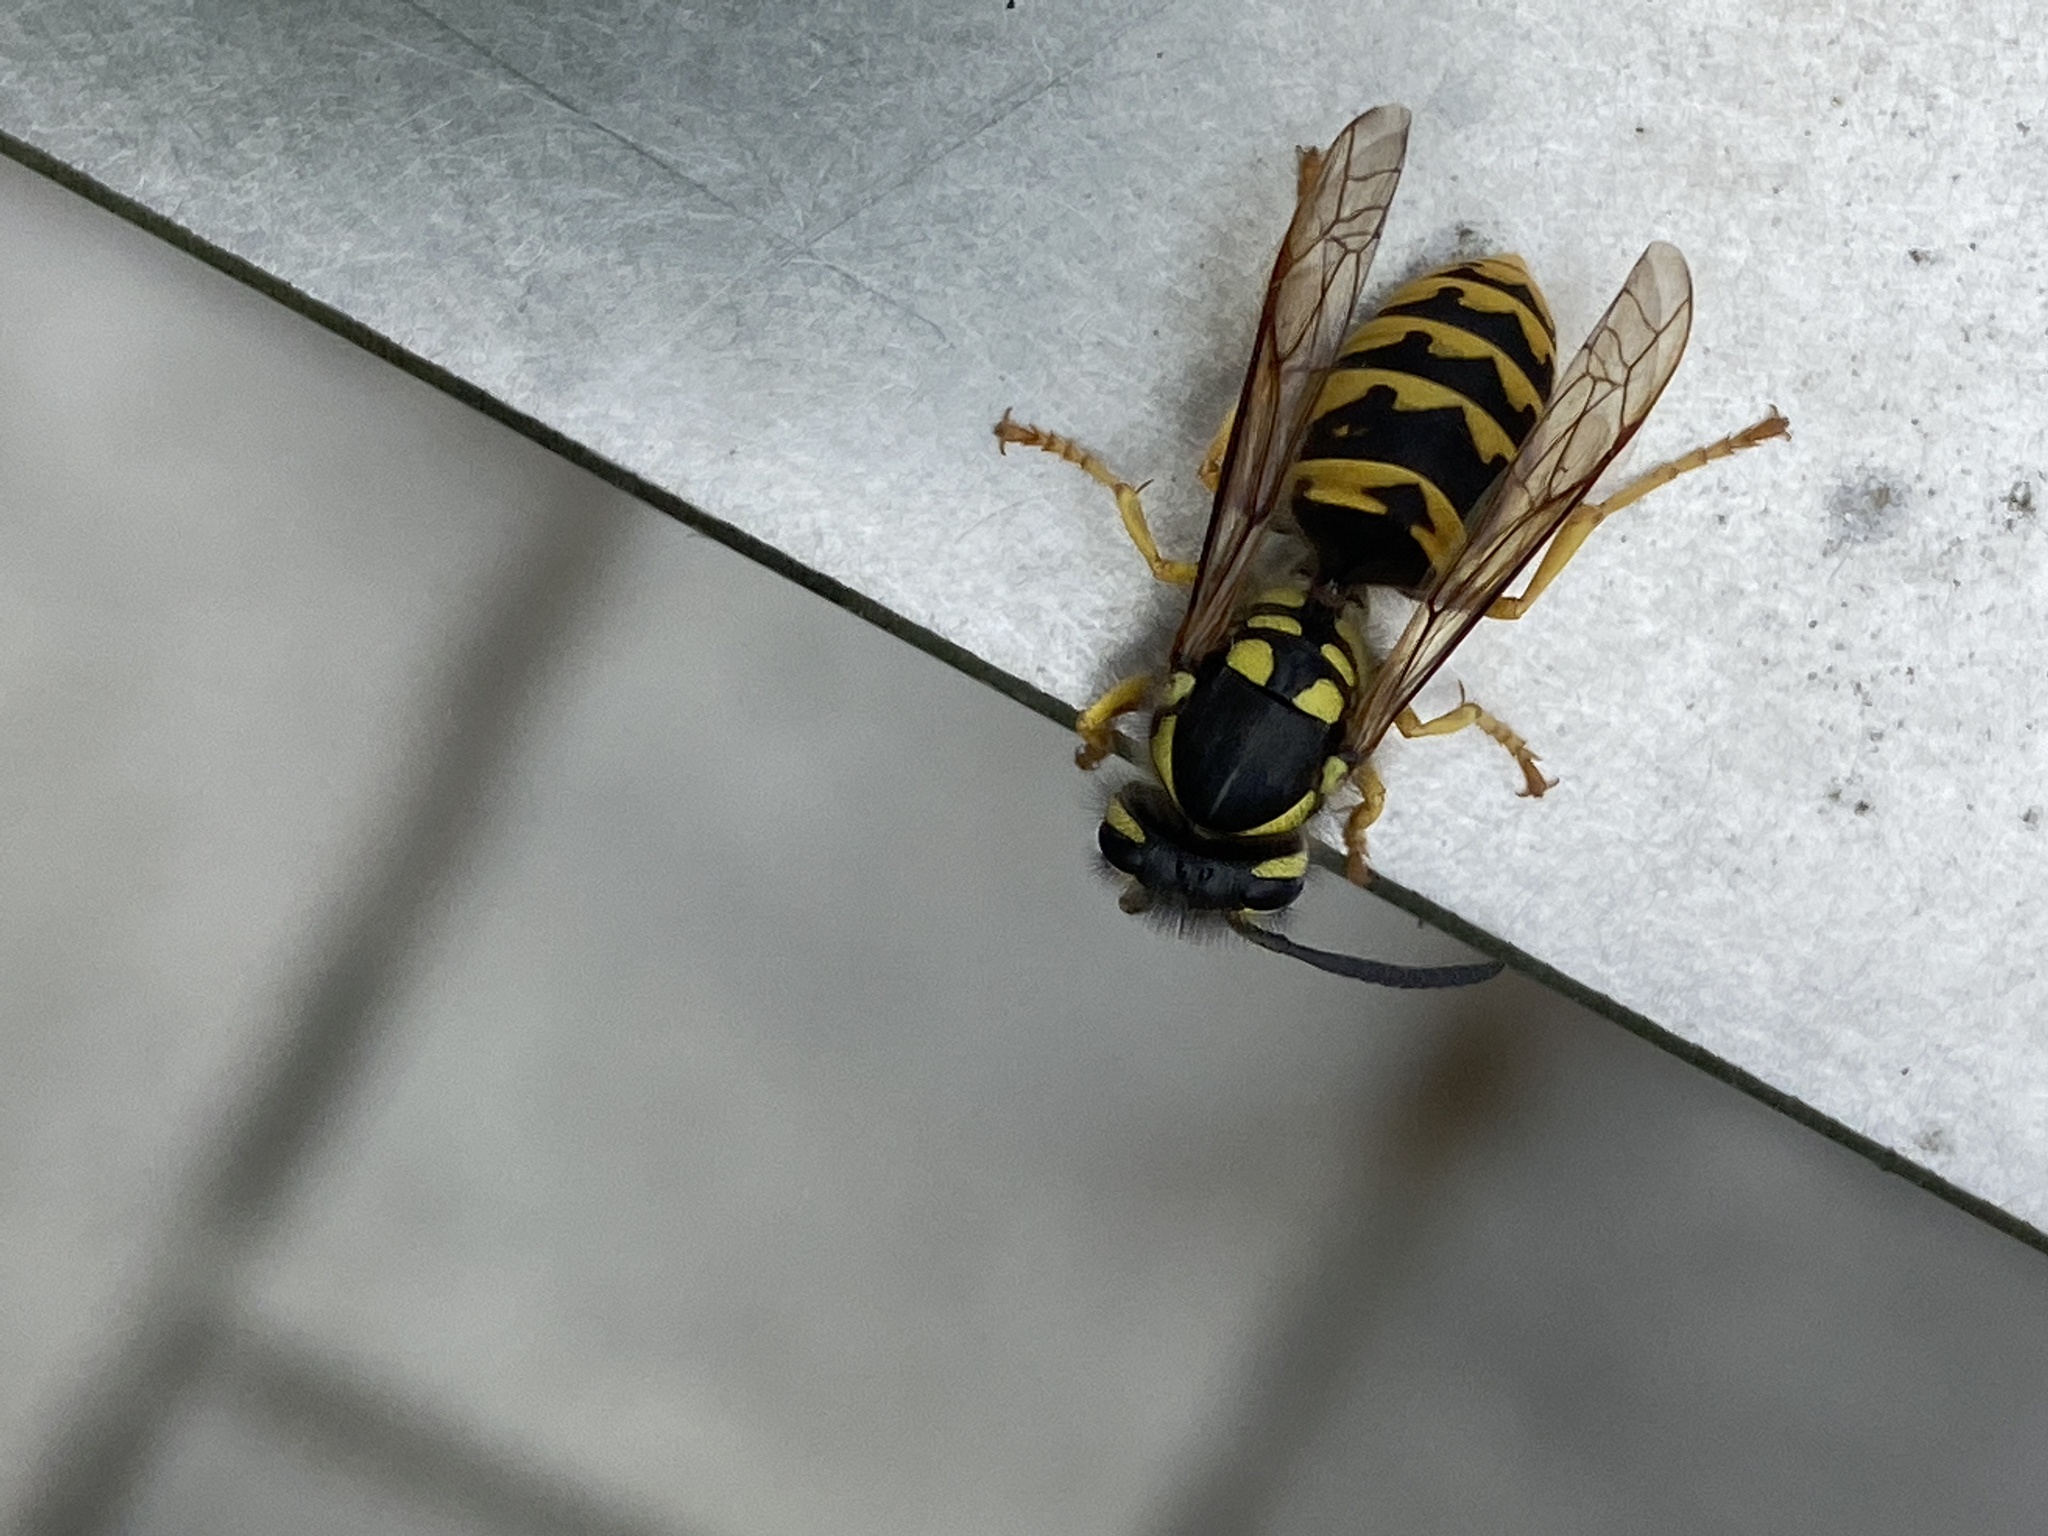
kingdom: Animalia
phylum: Arthropoda
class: Insecta
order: Hymenoptera
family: Vespidae
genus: Vespula
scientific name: Vespula germanica
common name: German wasp
